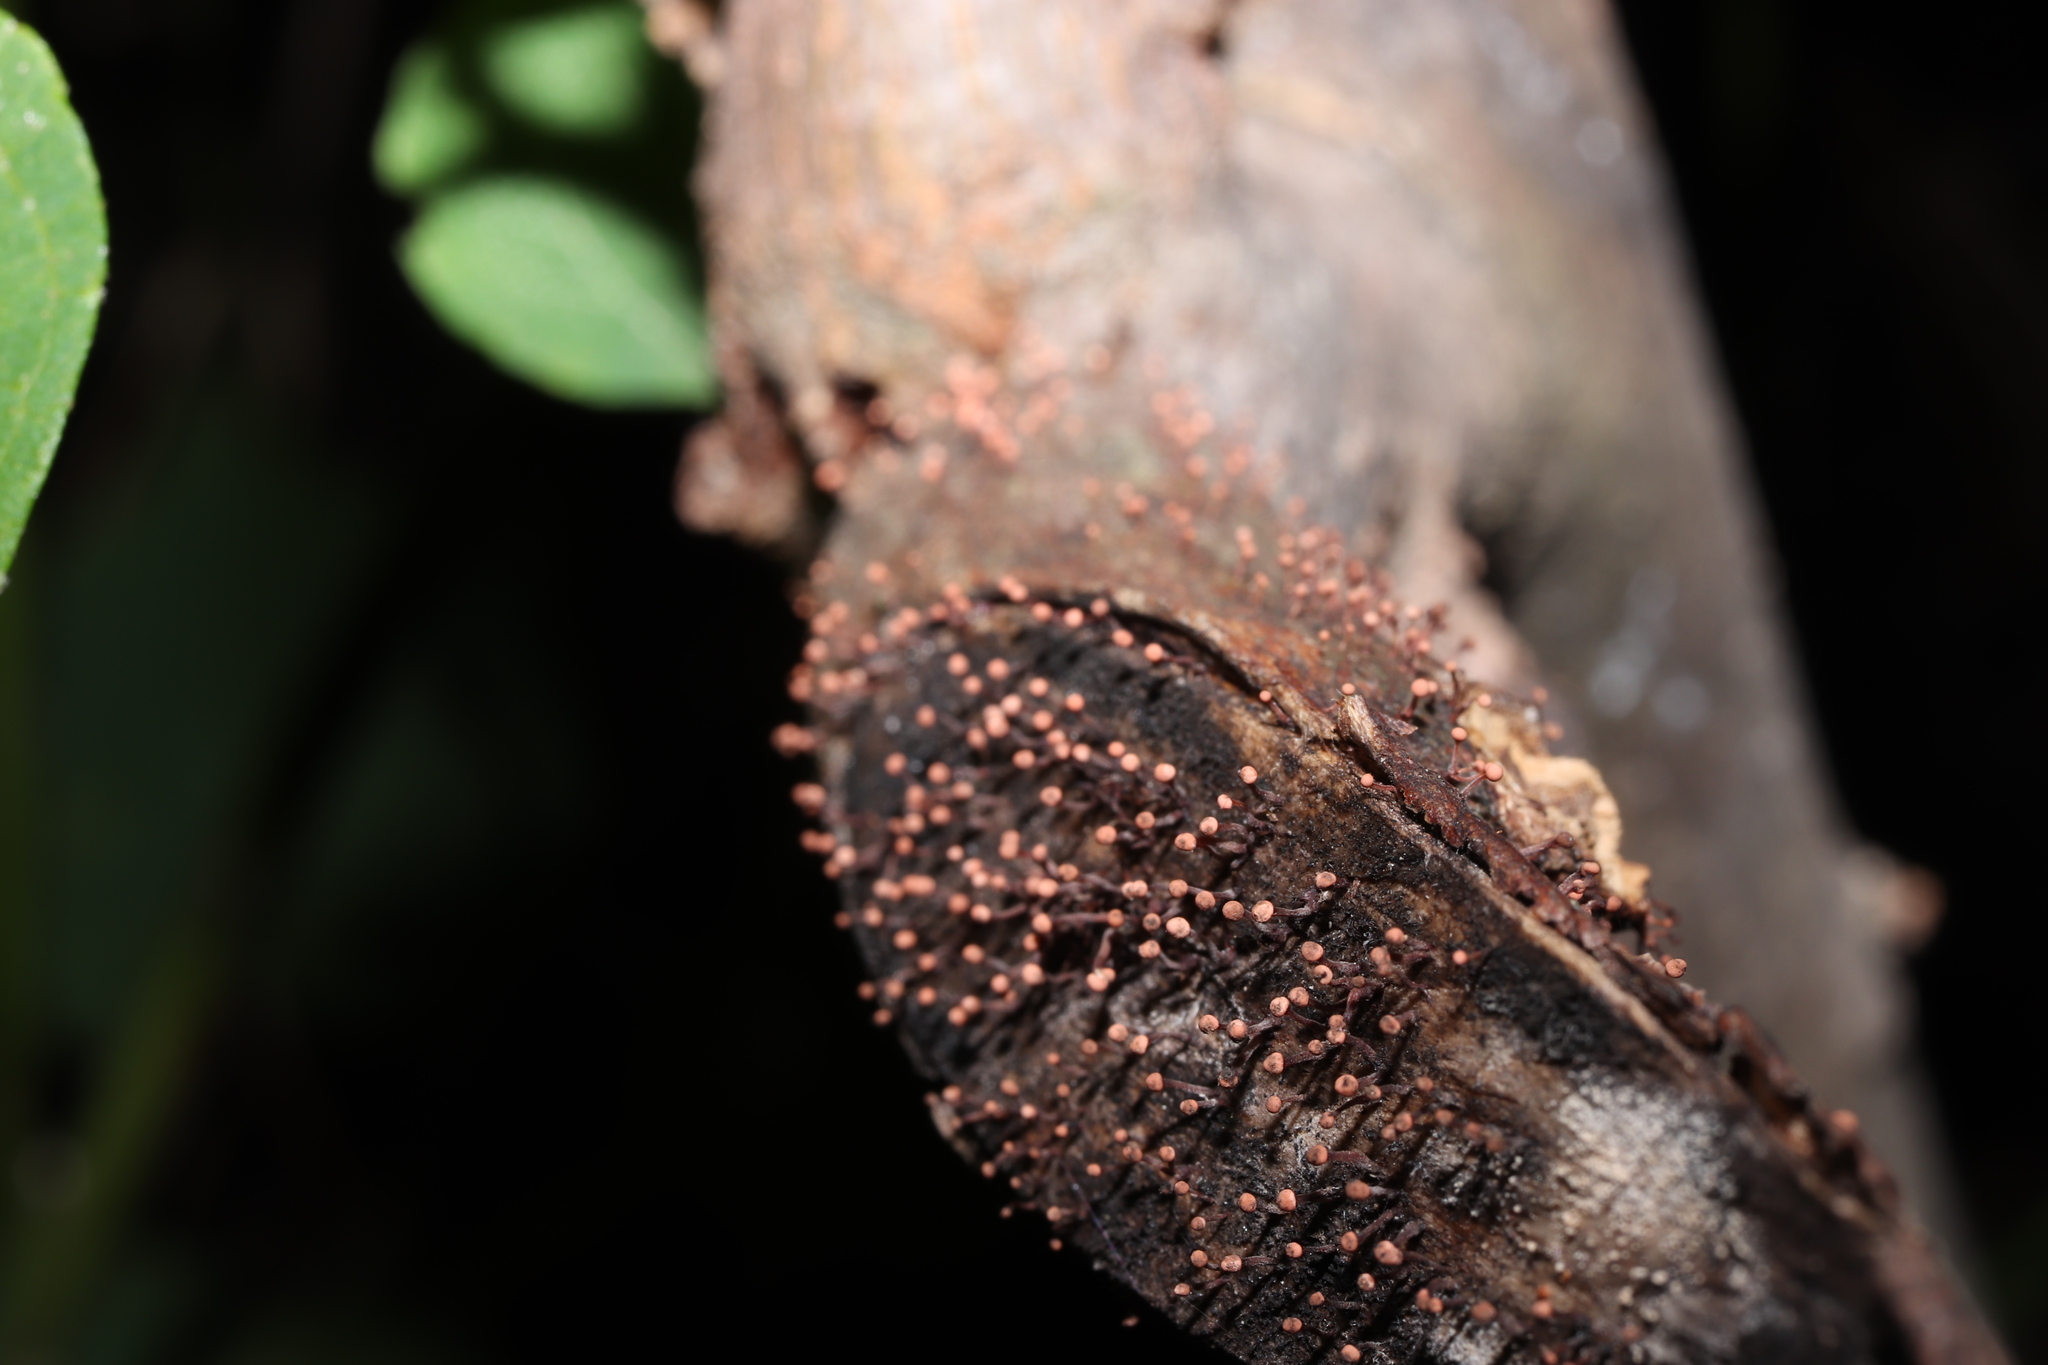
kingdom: Fungi
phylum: Ascomycota
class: Sordariomycetes
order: Hypocreales
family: Nectriaceae
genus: Nectria
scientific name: Nectria pseudotrichia
